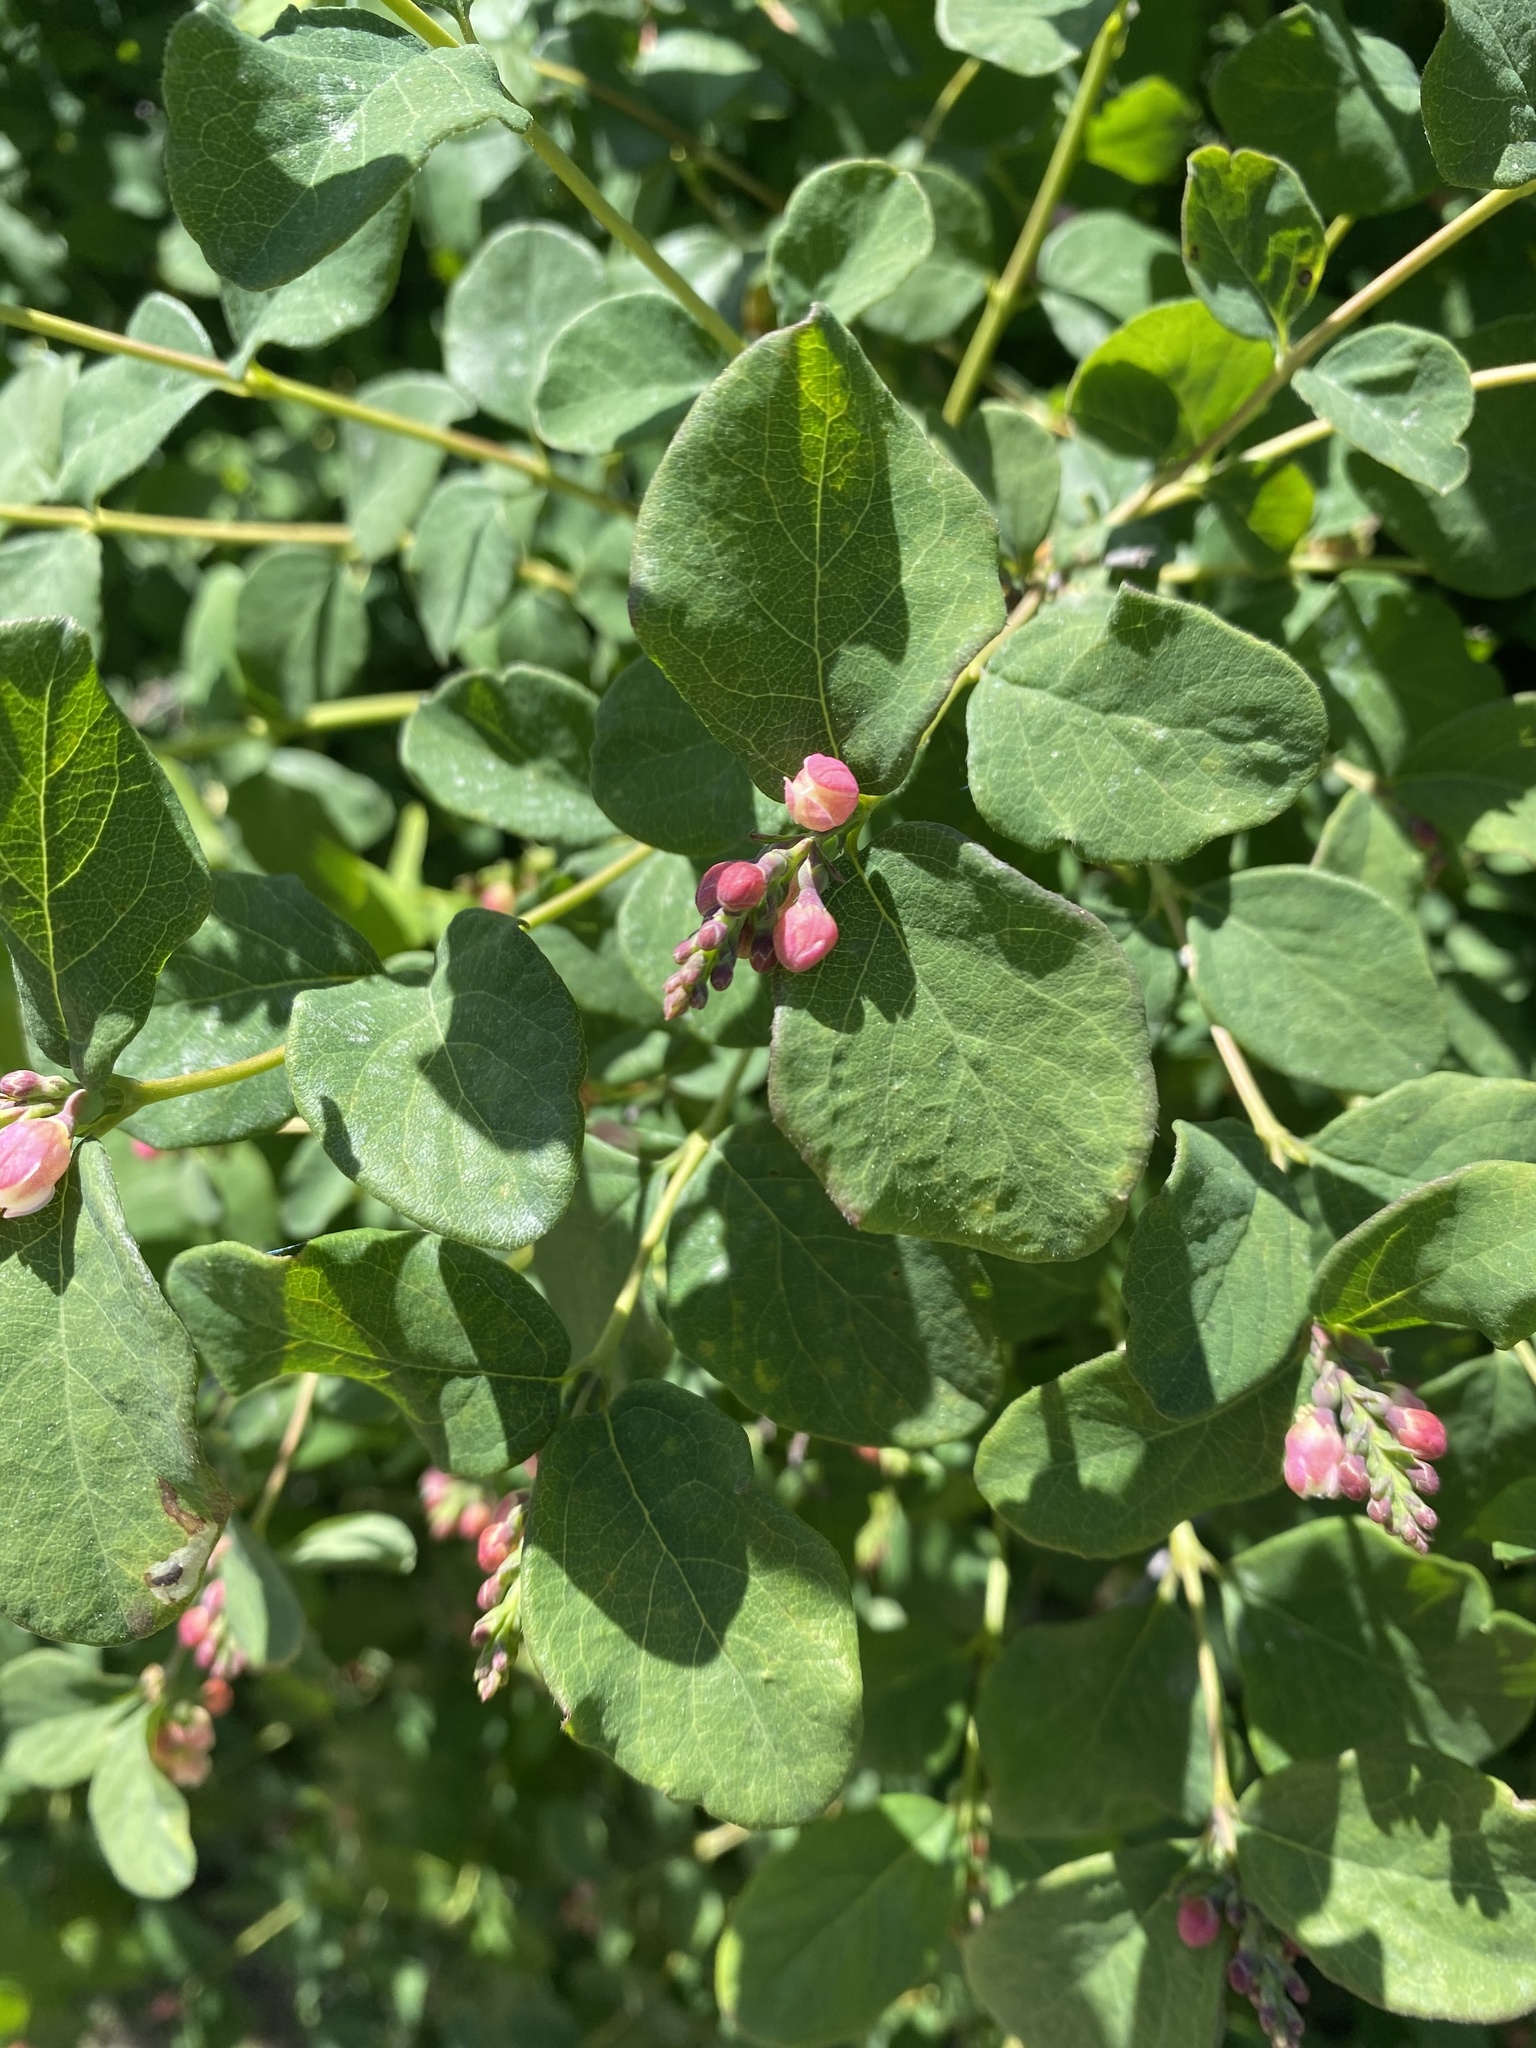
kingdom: Plantae
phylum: Tracheophyta
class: Magnoliopsida
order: Dipsacales
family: Caprifoliaceae
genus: Symphoricarpos
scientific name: Symphoricarpos albus
